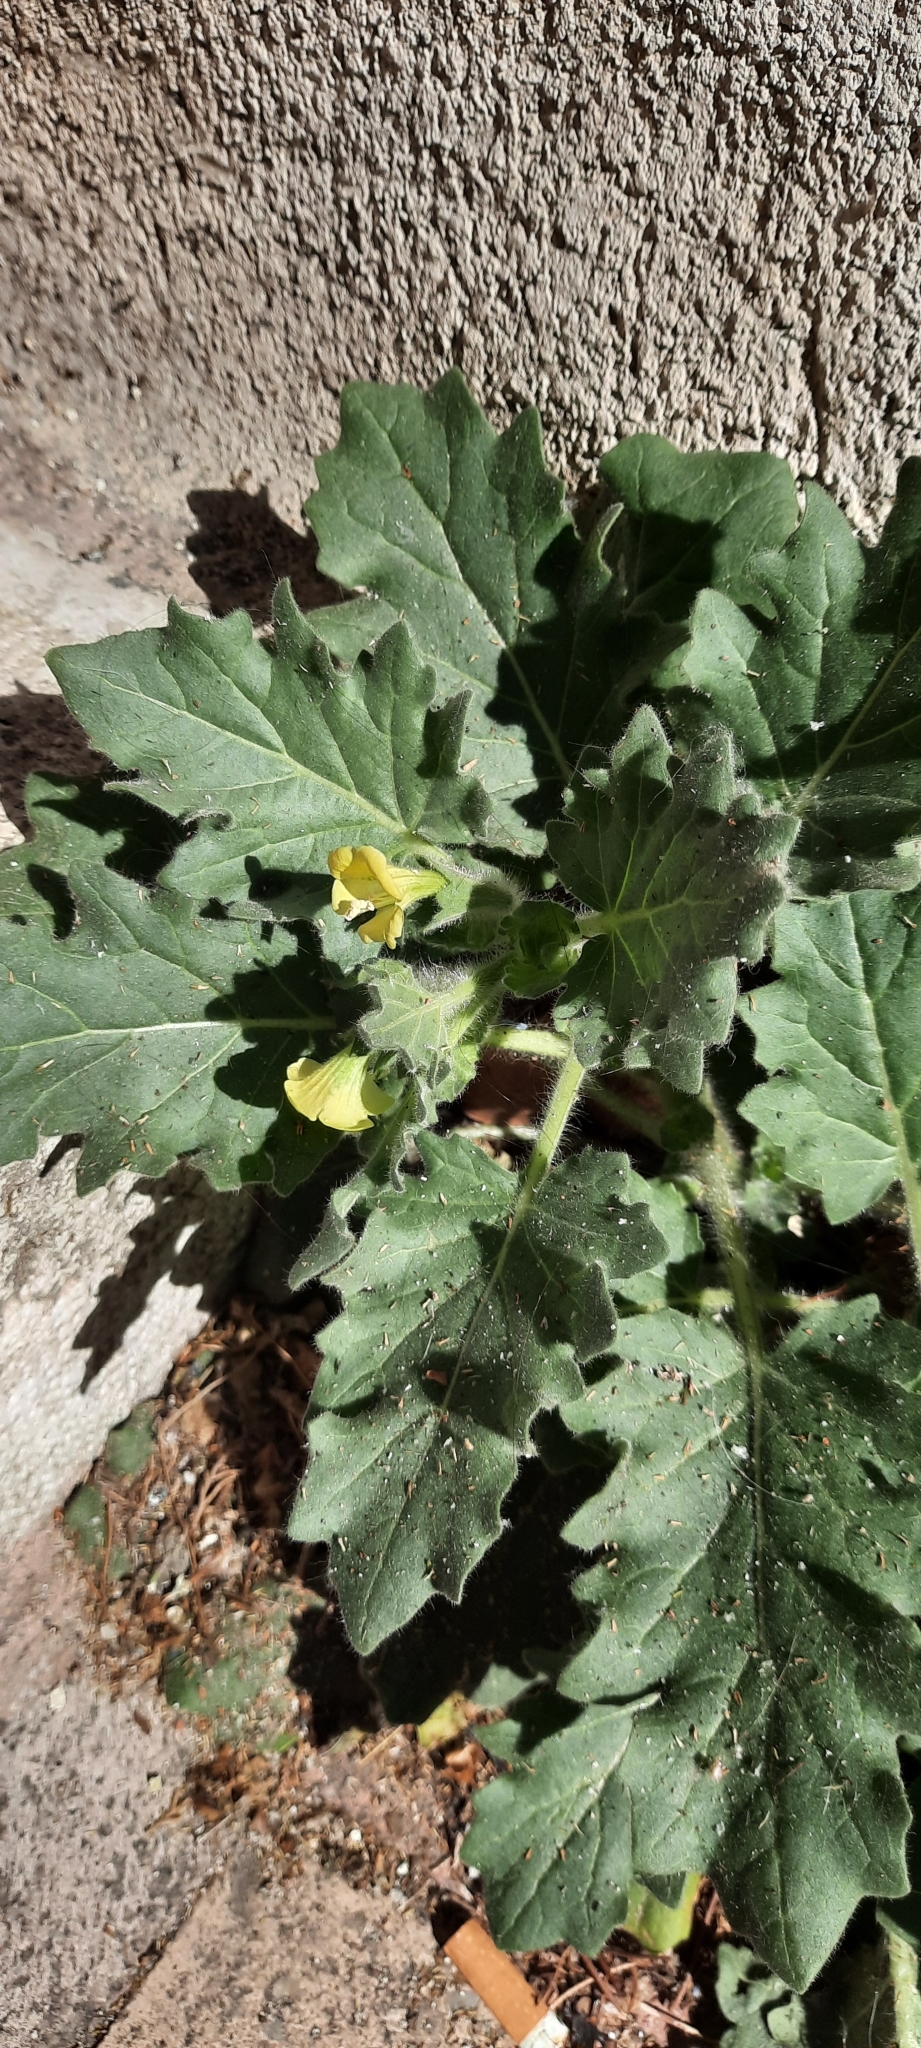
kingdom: Plantae
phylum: Tracheophyta
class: Magnoliopsida
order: Solanales
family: Solanaceae
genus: Hyoscyamus
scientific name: Hyoscyamus albus
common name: White henbane
